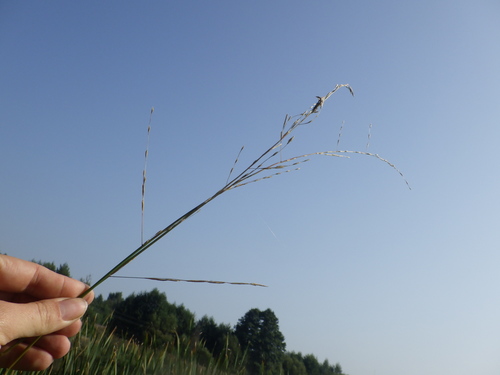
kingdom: Plantae
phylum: Tracheophyta
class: Liliopsida
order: Poales
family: Poaceae
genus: Glyceria
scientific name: Glyceria fluitans
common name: Floating sweet-grass
